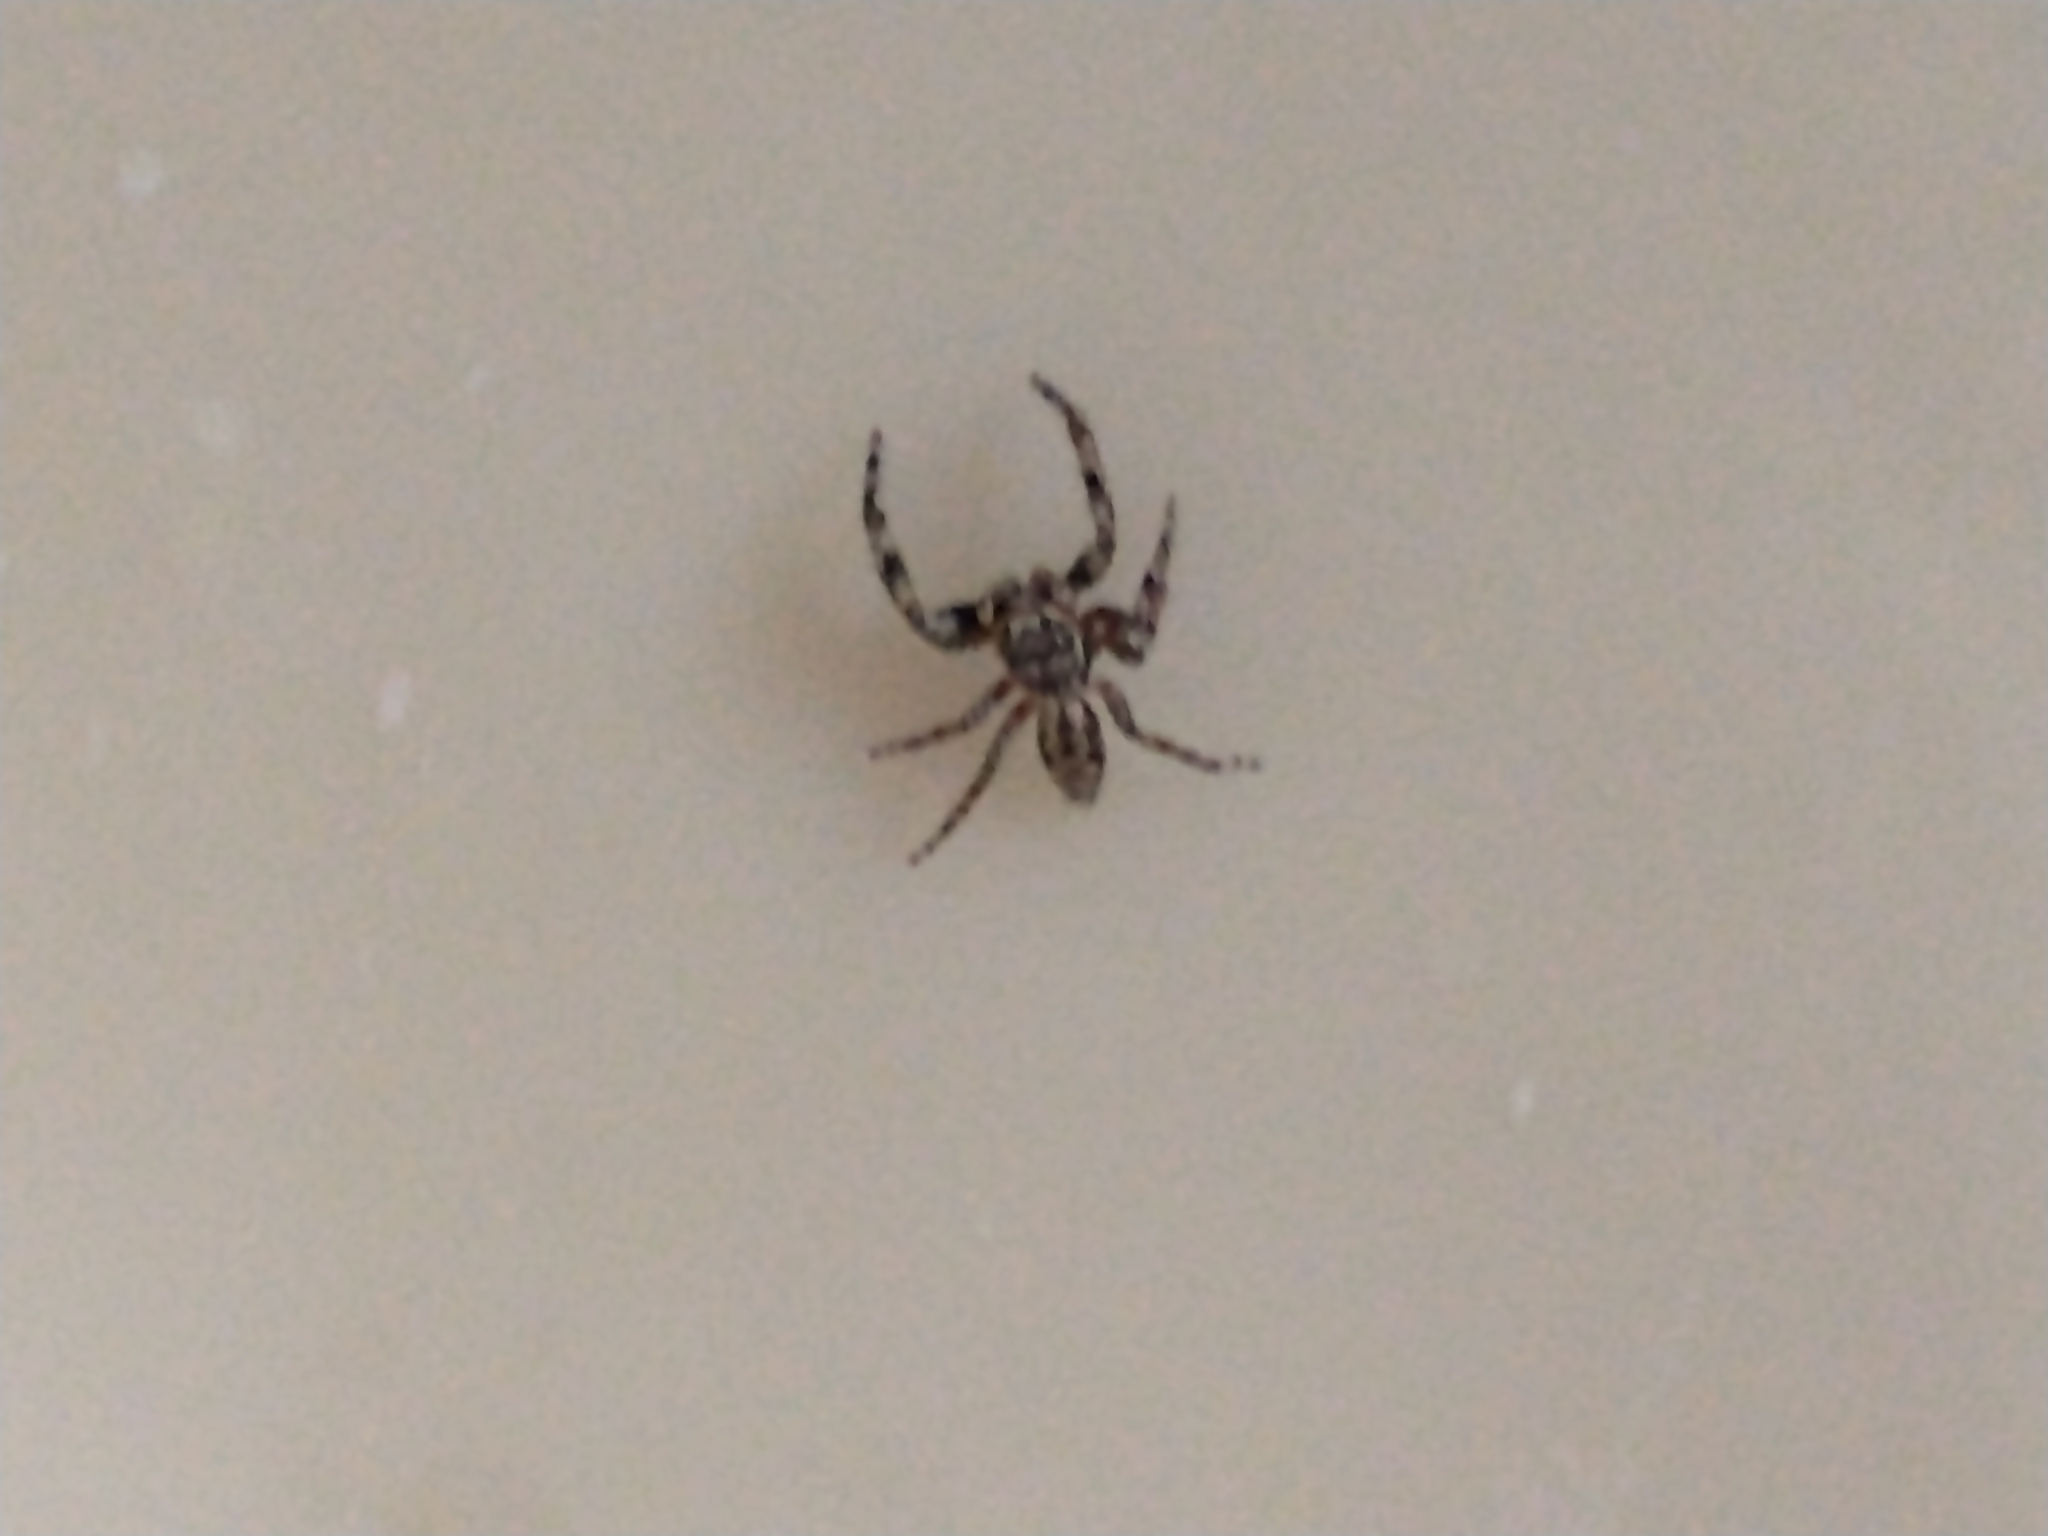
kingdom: Animalia
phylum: Arthropoda
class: Arachnida
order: Araneae
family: Salticidae
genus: Platycryptus
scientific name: Platycryptus undatus
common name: Tan jumping spider
